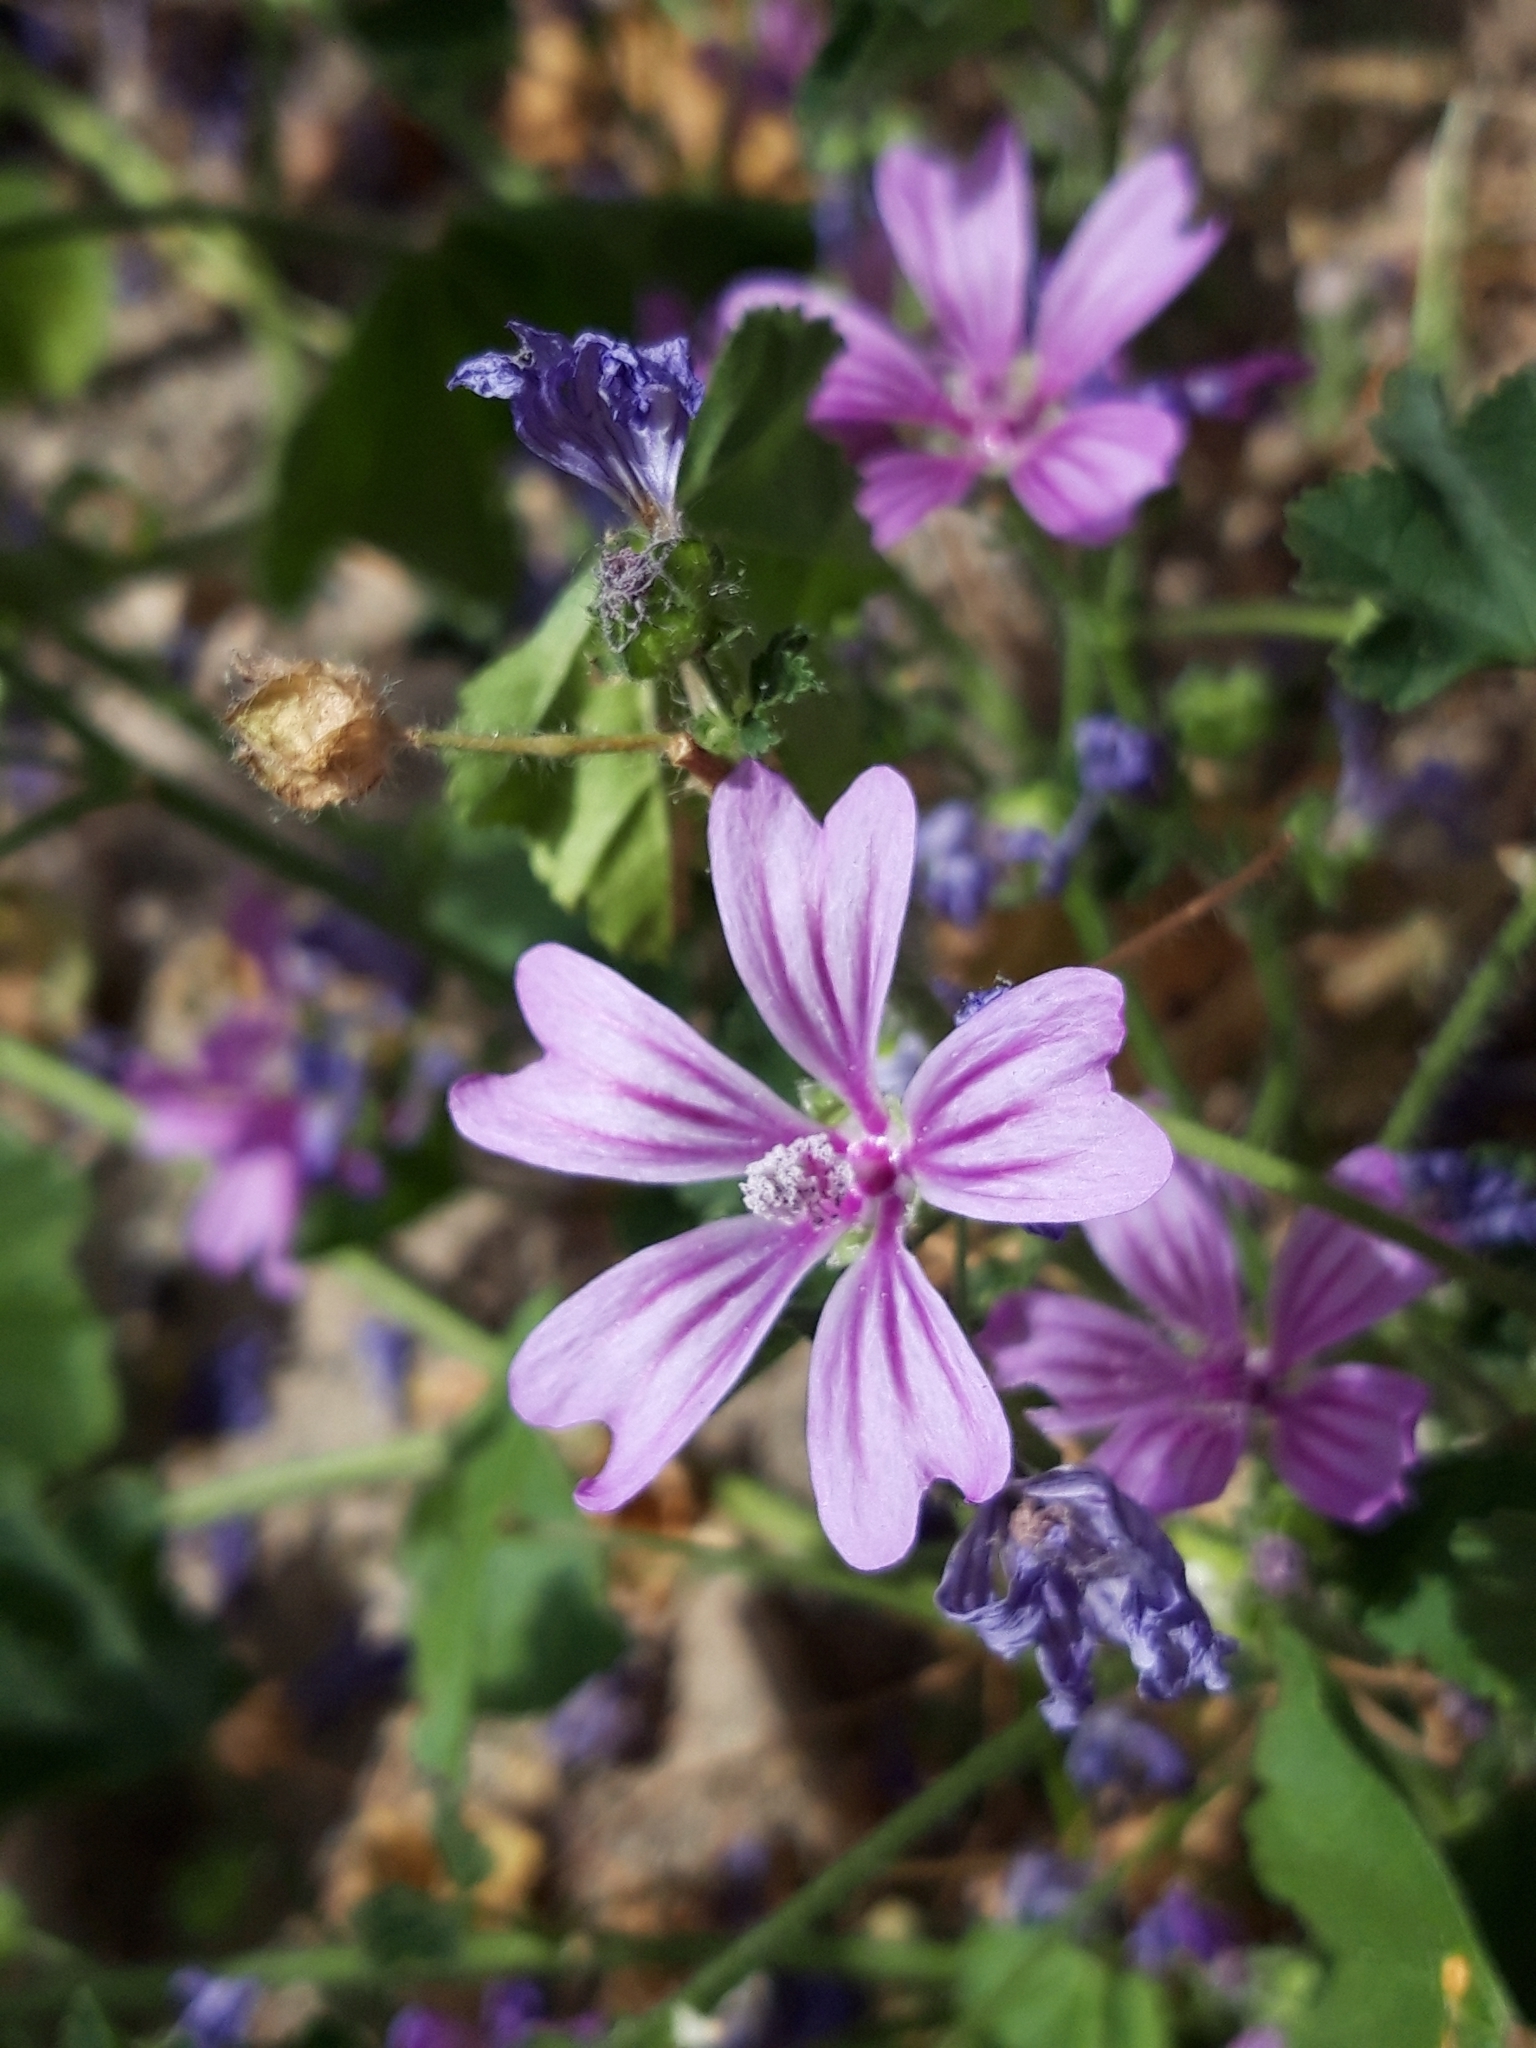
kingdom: Plantae
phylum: Tracheophyta
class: Magnoliopsida
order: Malvales
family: Malvaceae
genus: Malva
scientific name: Malva sylvestris
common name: Common mallow
